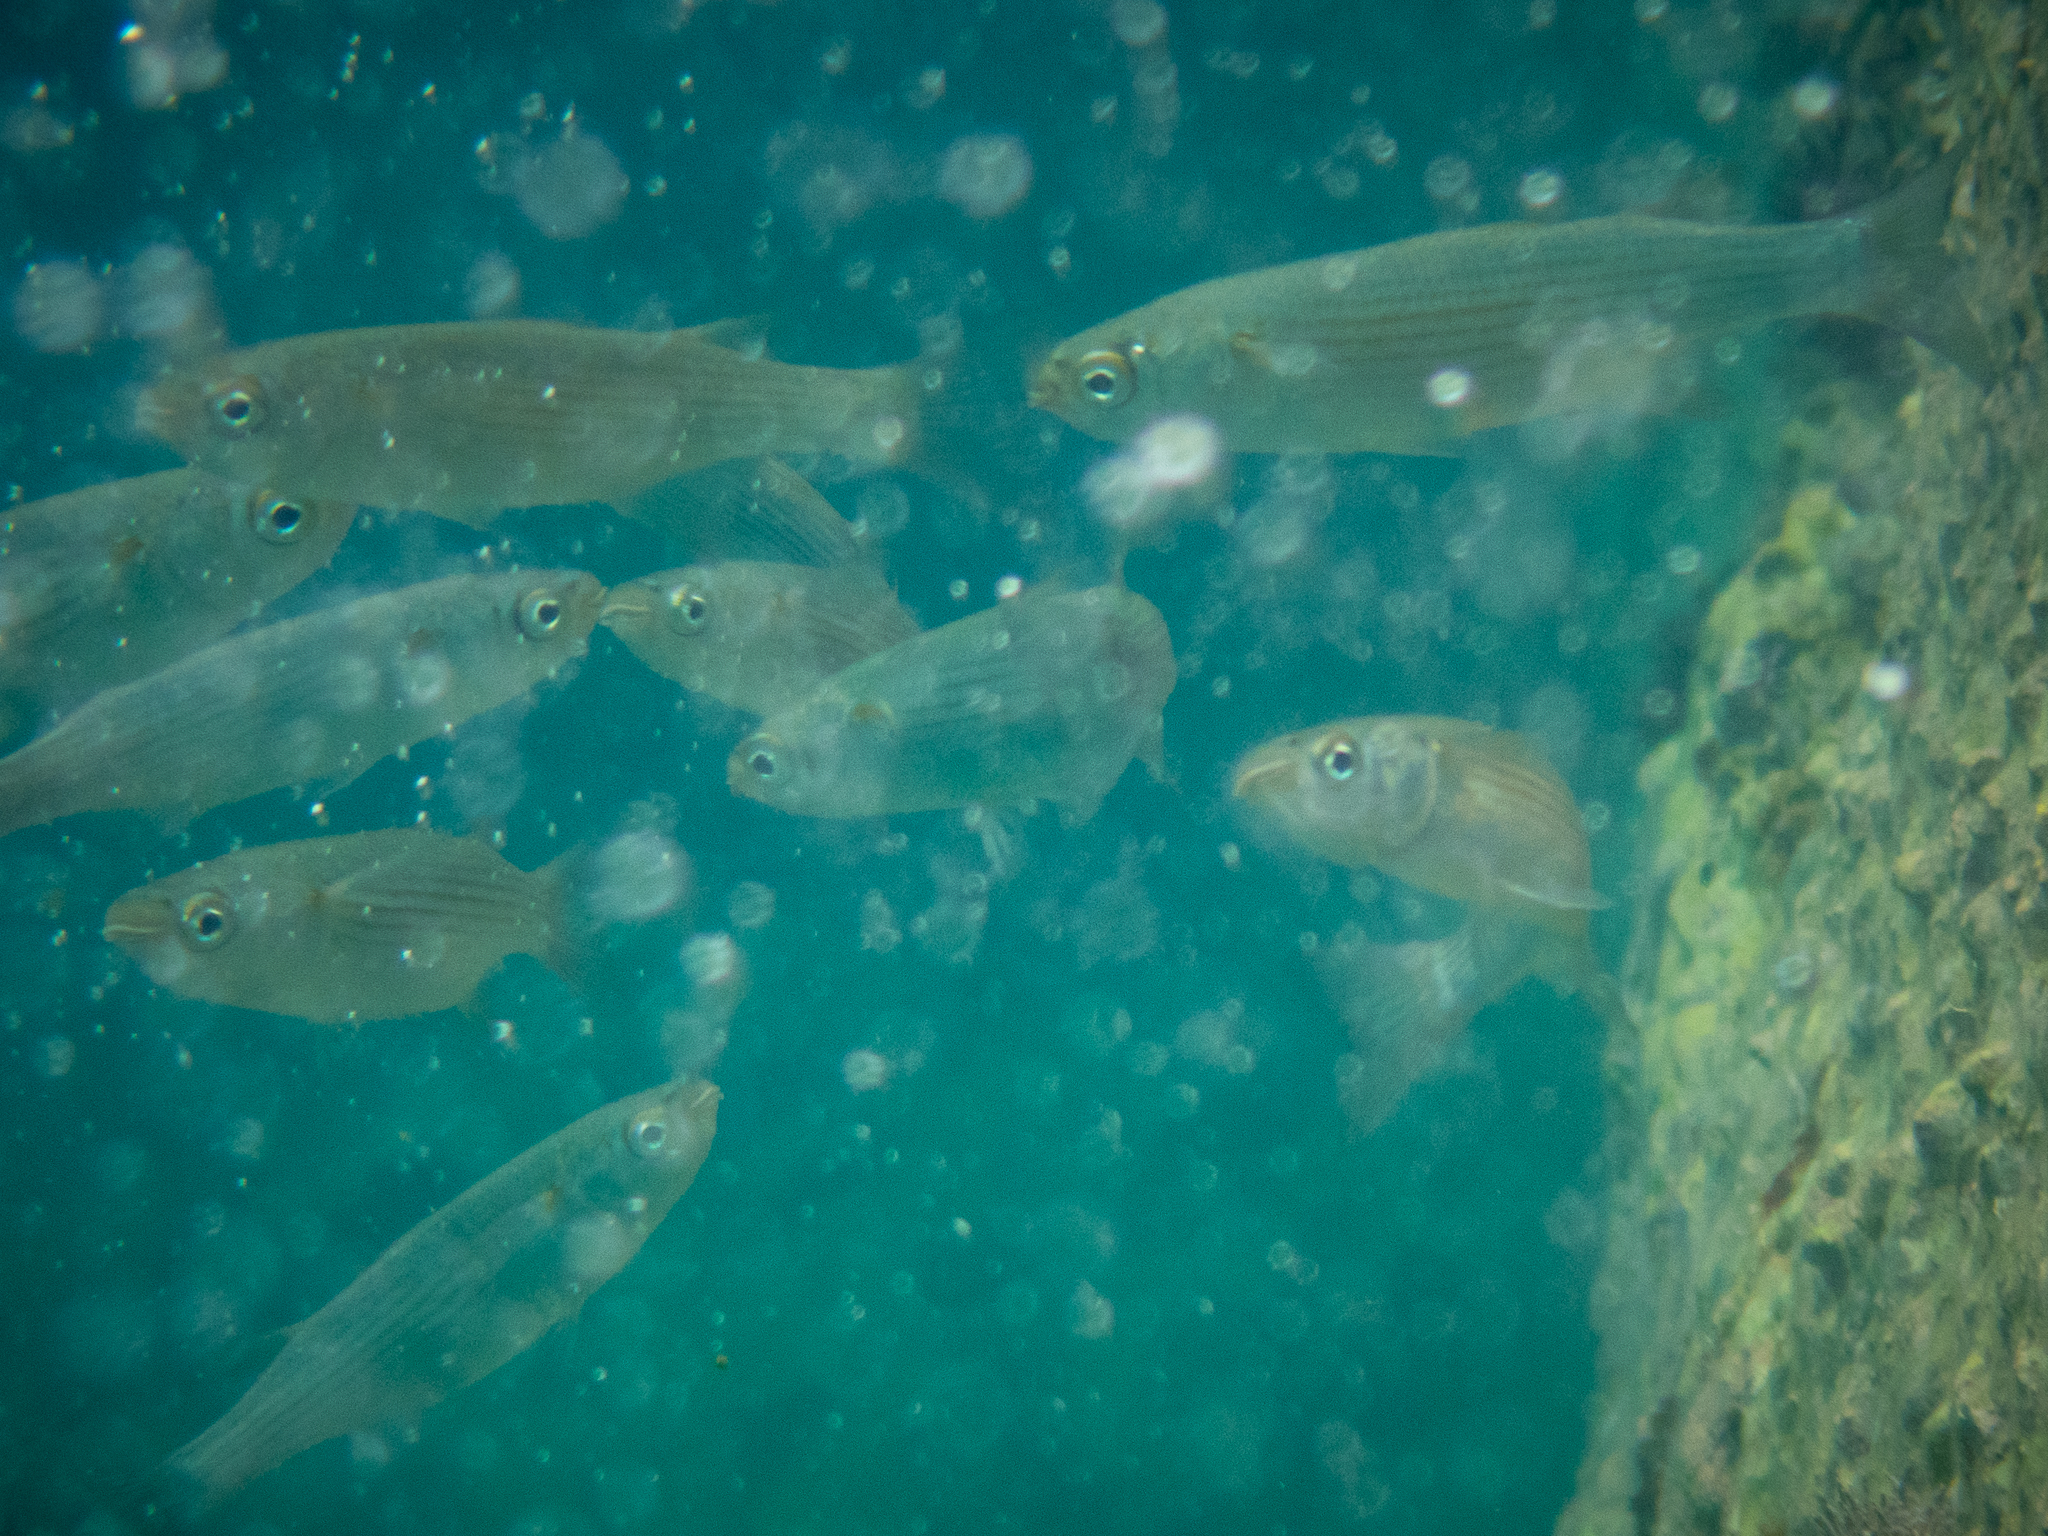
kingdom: Animalia
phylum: Chordata
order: Mugiliformes
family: Mugilidae
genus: Oedalechilus
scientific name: Oedalechilus labeo
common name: Boxlip mullet
